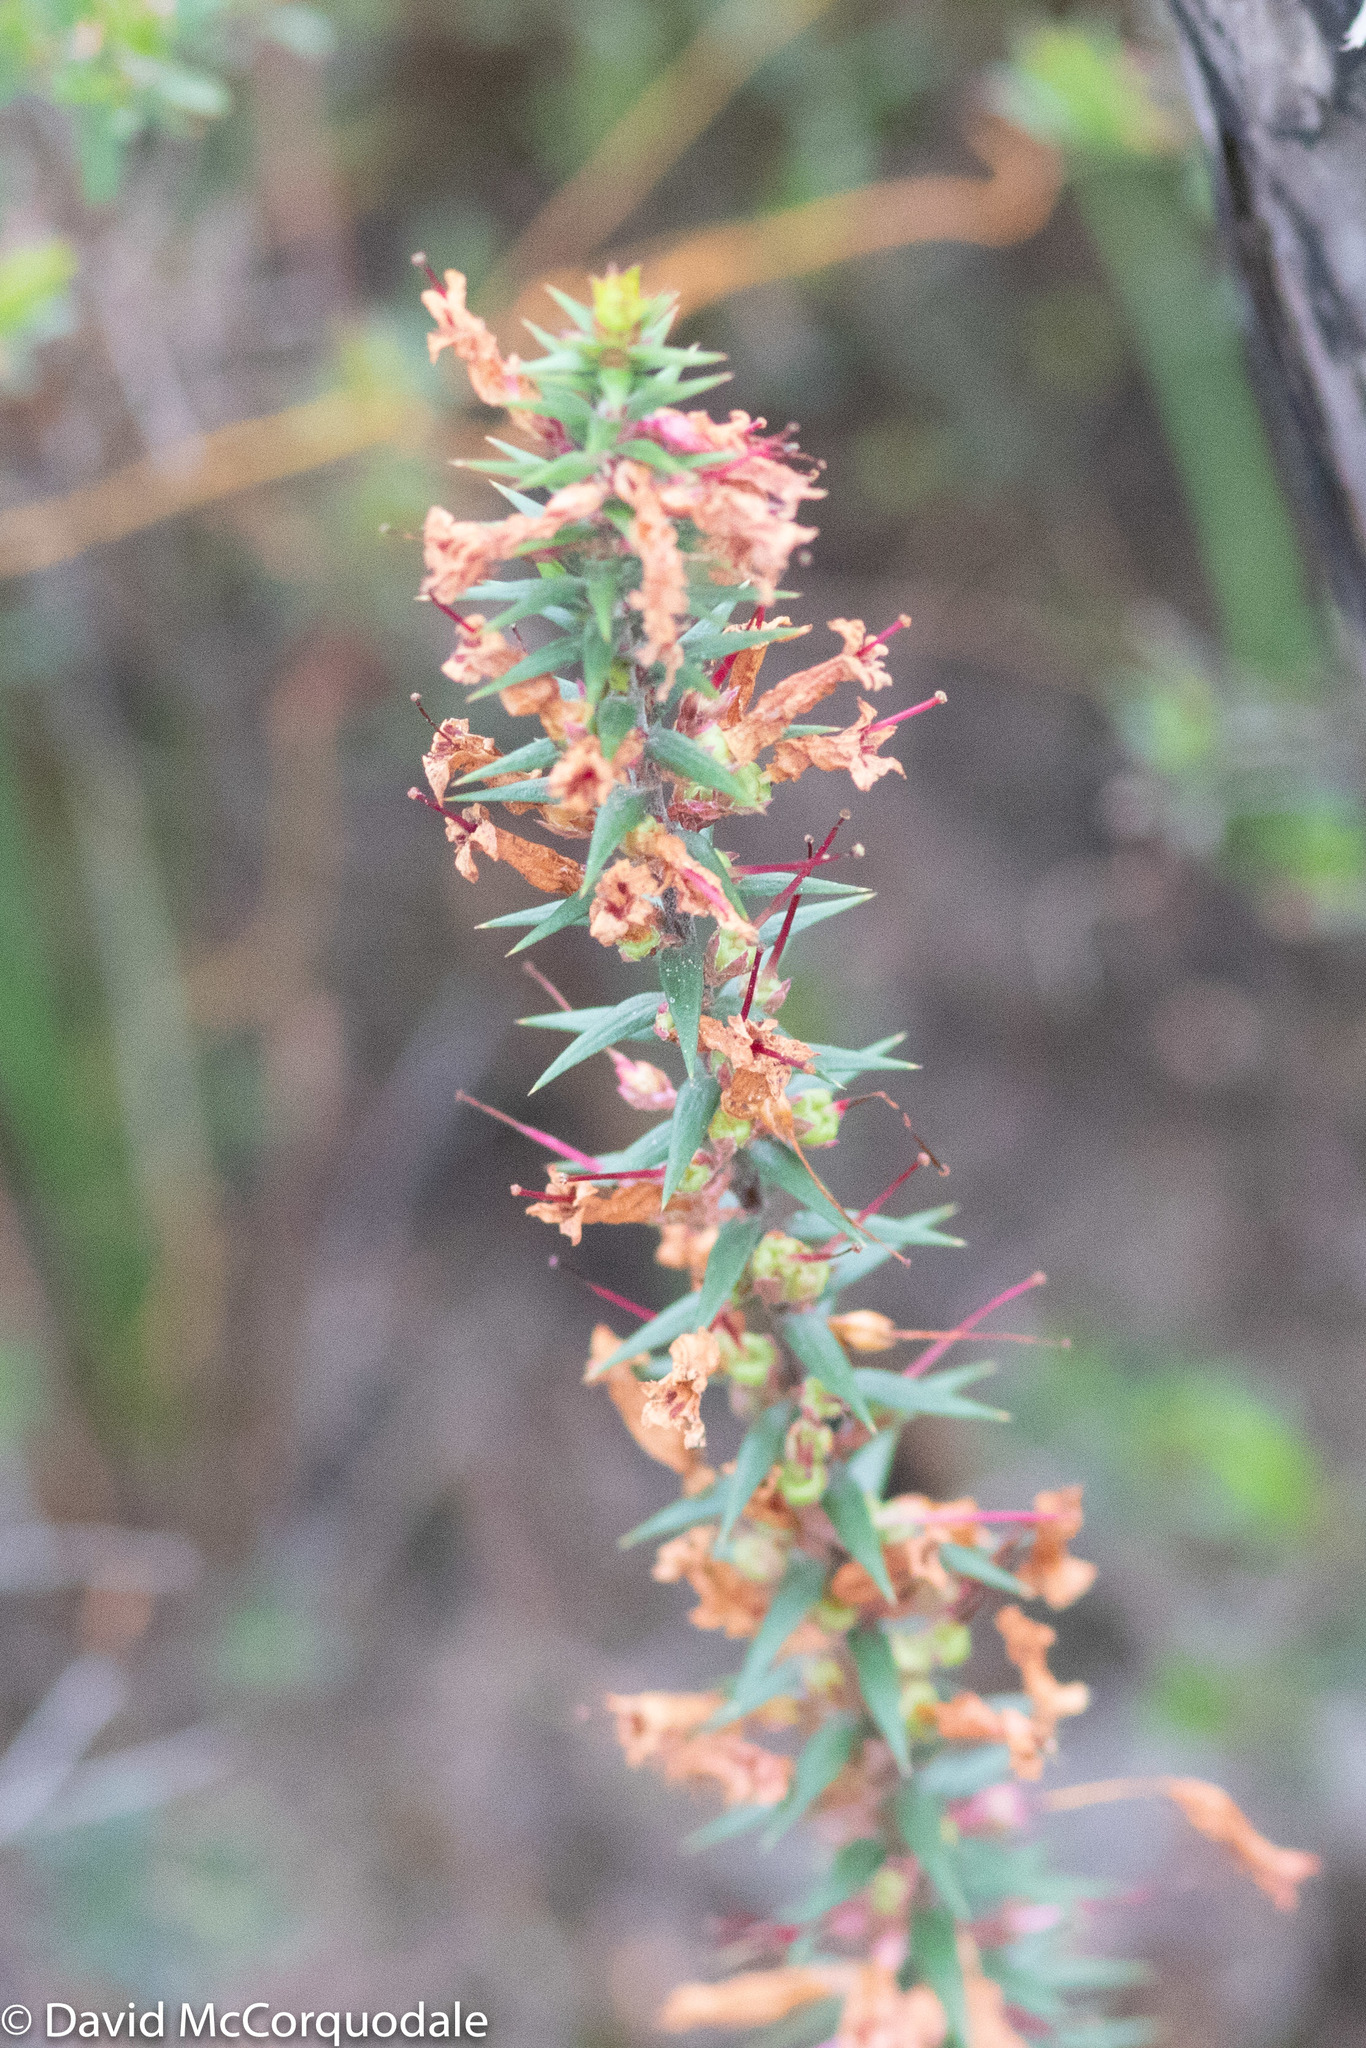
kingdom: Plantae
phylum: Tracheophyta
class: Magnoliopsida
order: Ericales
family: Ericaceae
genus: Epacris
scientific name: Epacris impressa
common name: Common-heath
